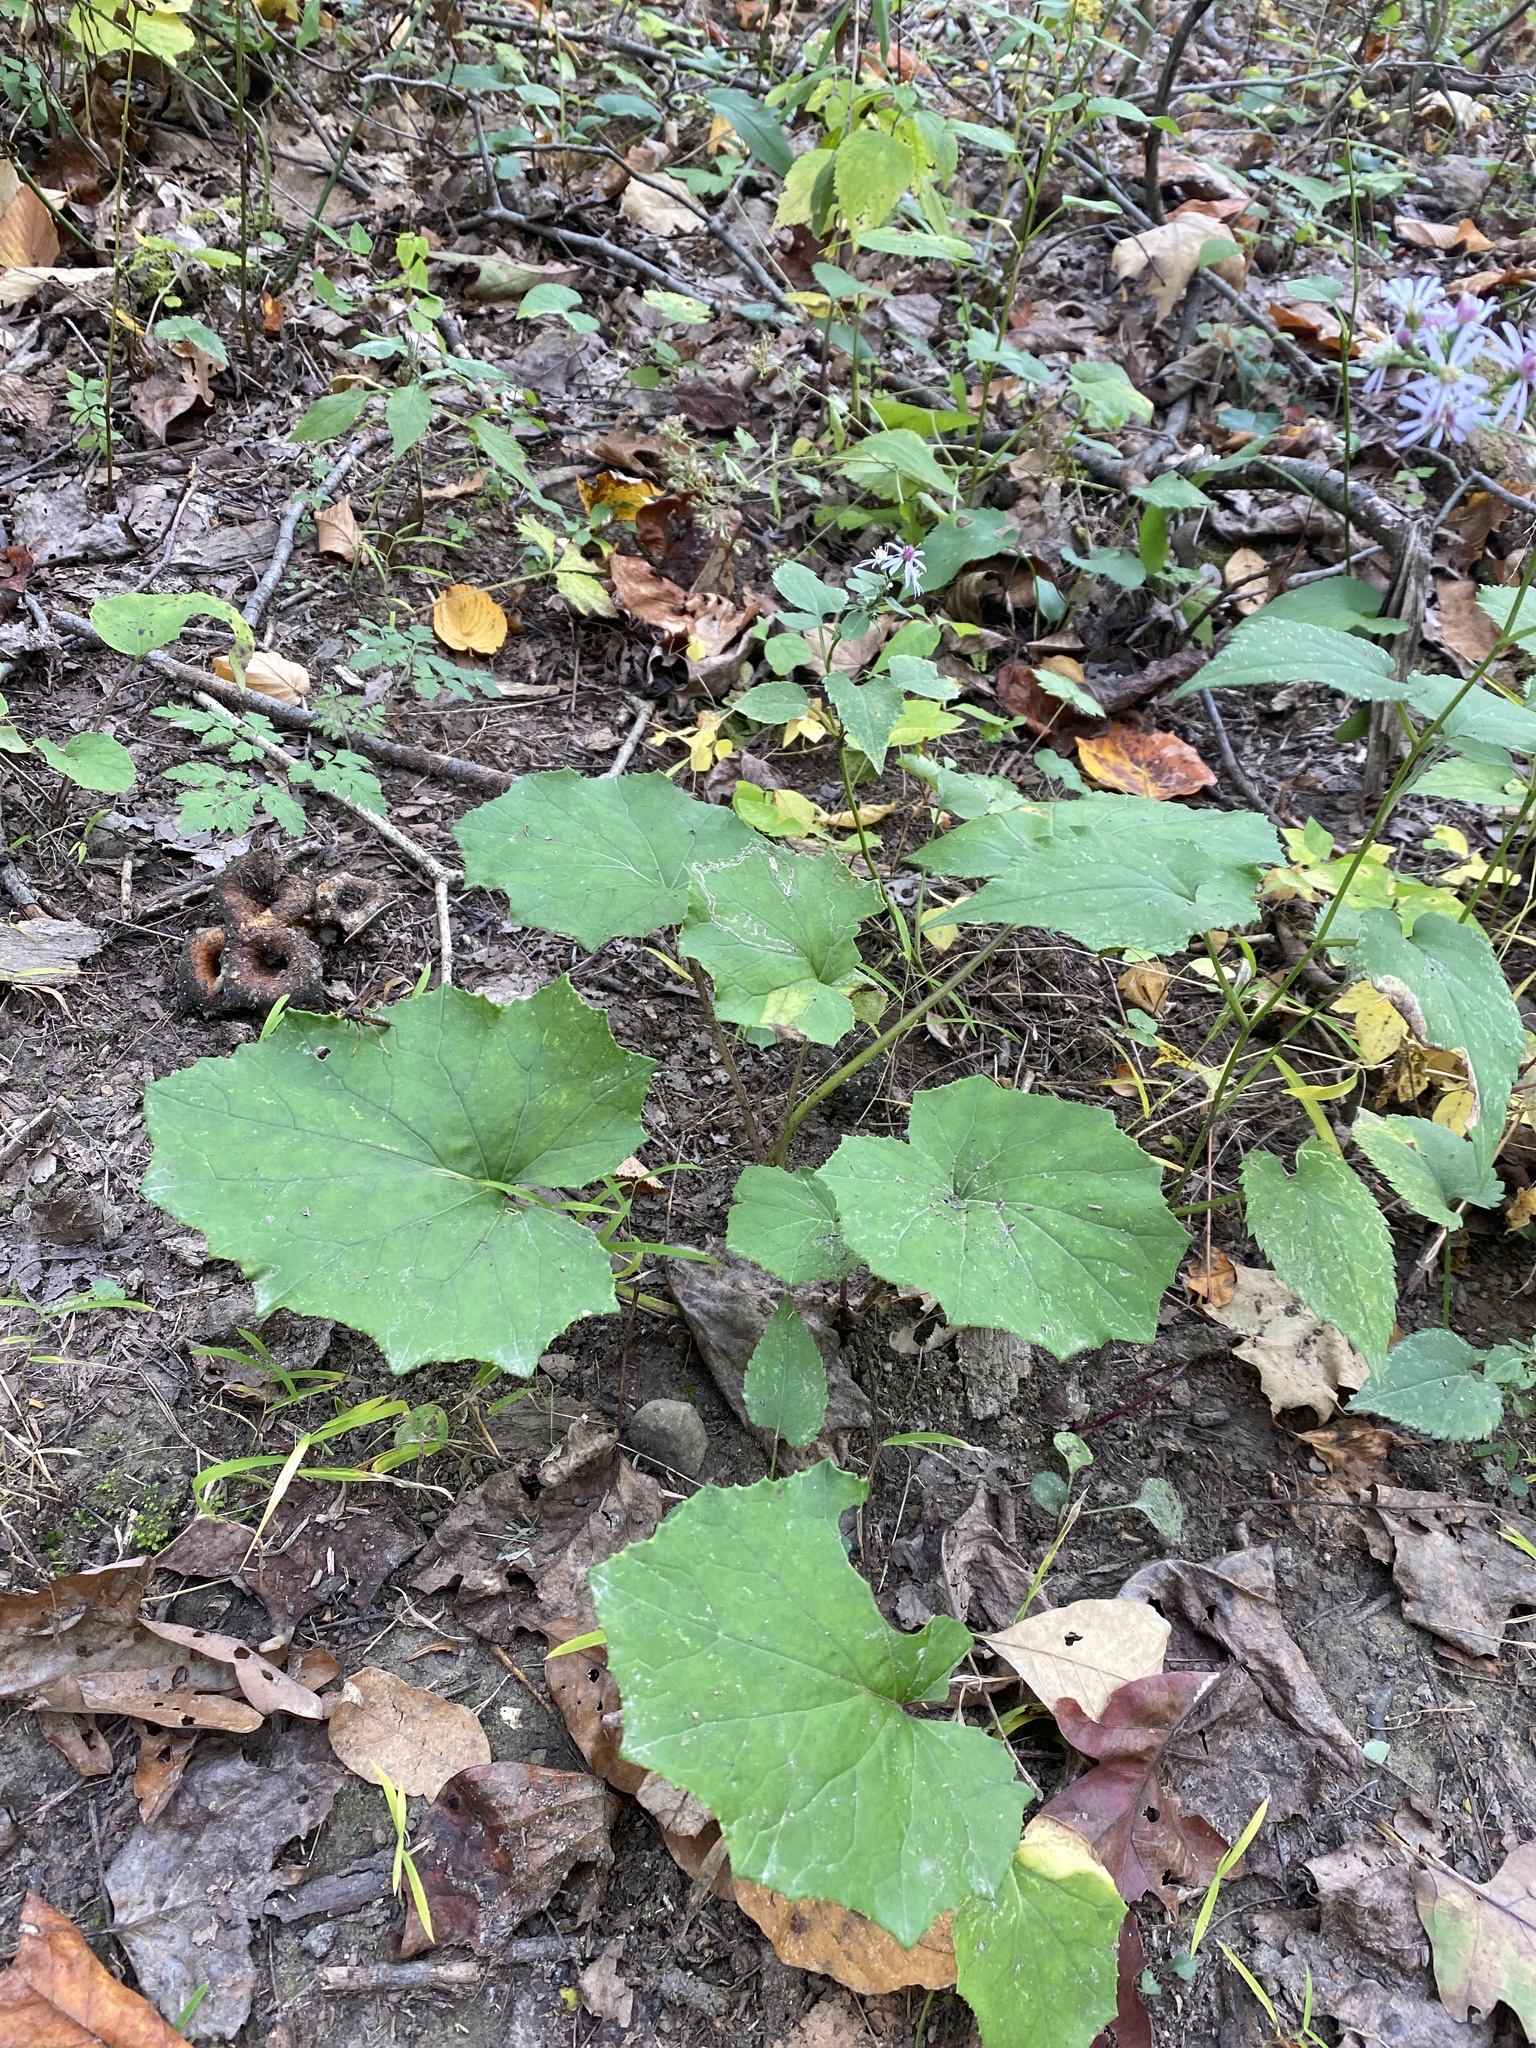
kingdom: Plantae
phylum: Tracheophyta
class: Magnoliopsida
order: Asterales
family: Asteraceae
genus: Tussilago
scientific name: Tussilago farfara
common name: Coltsfoot
